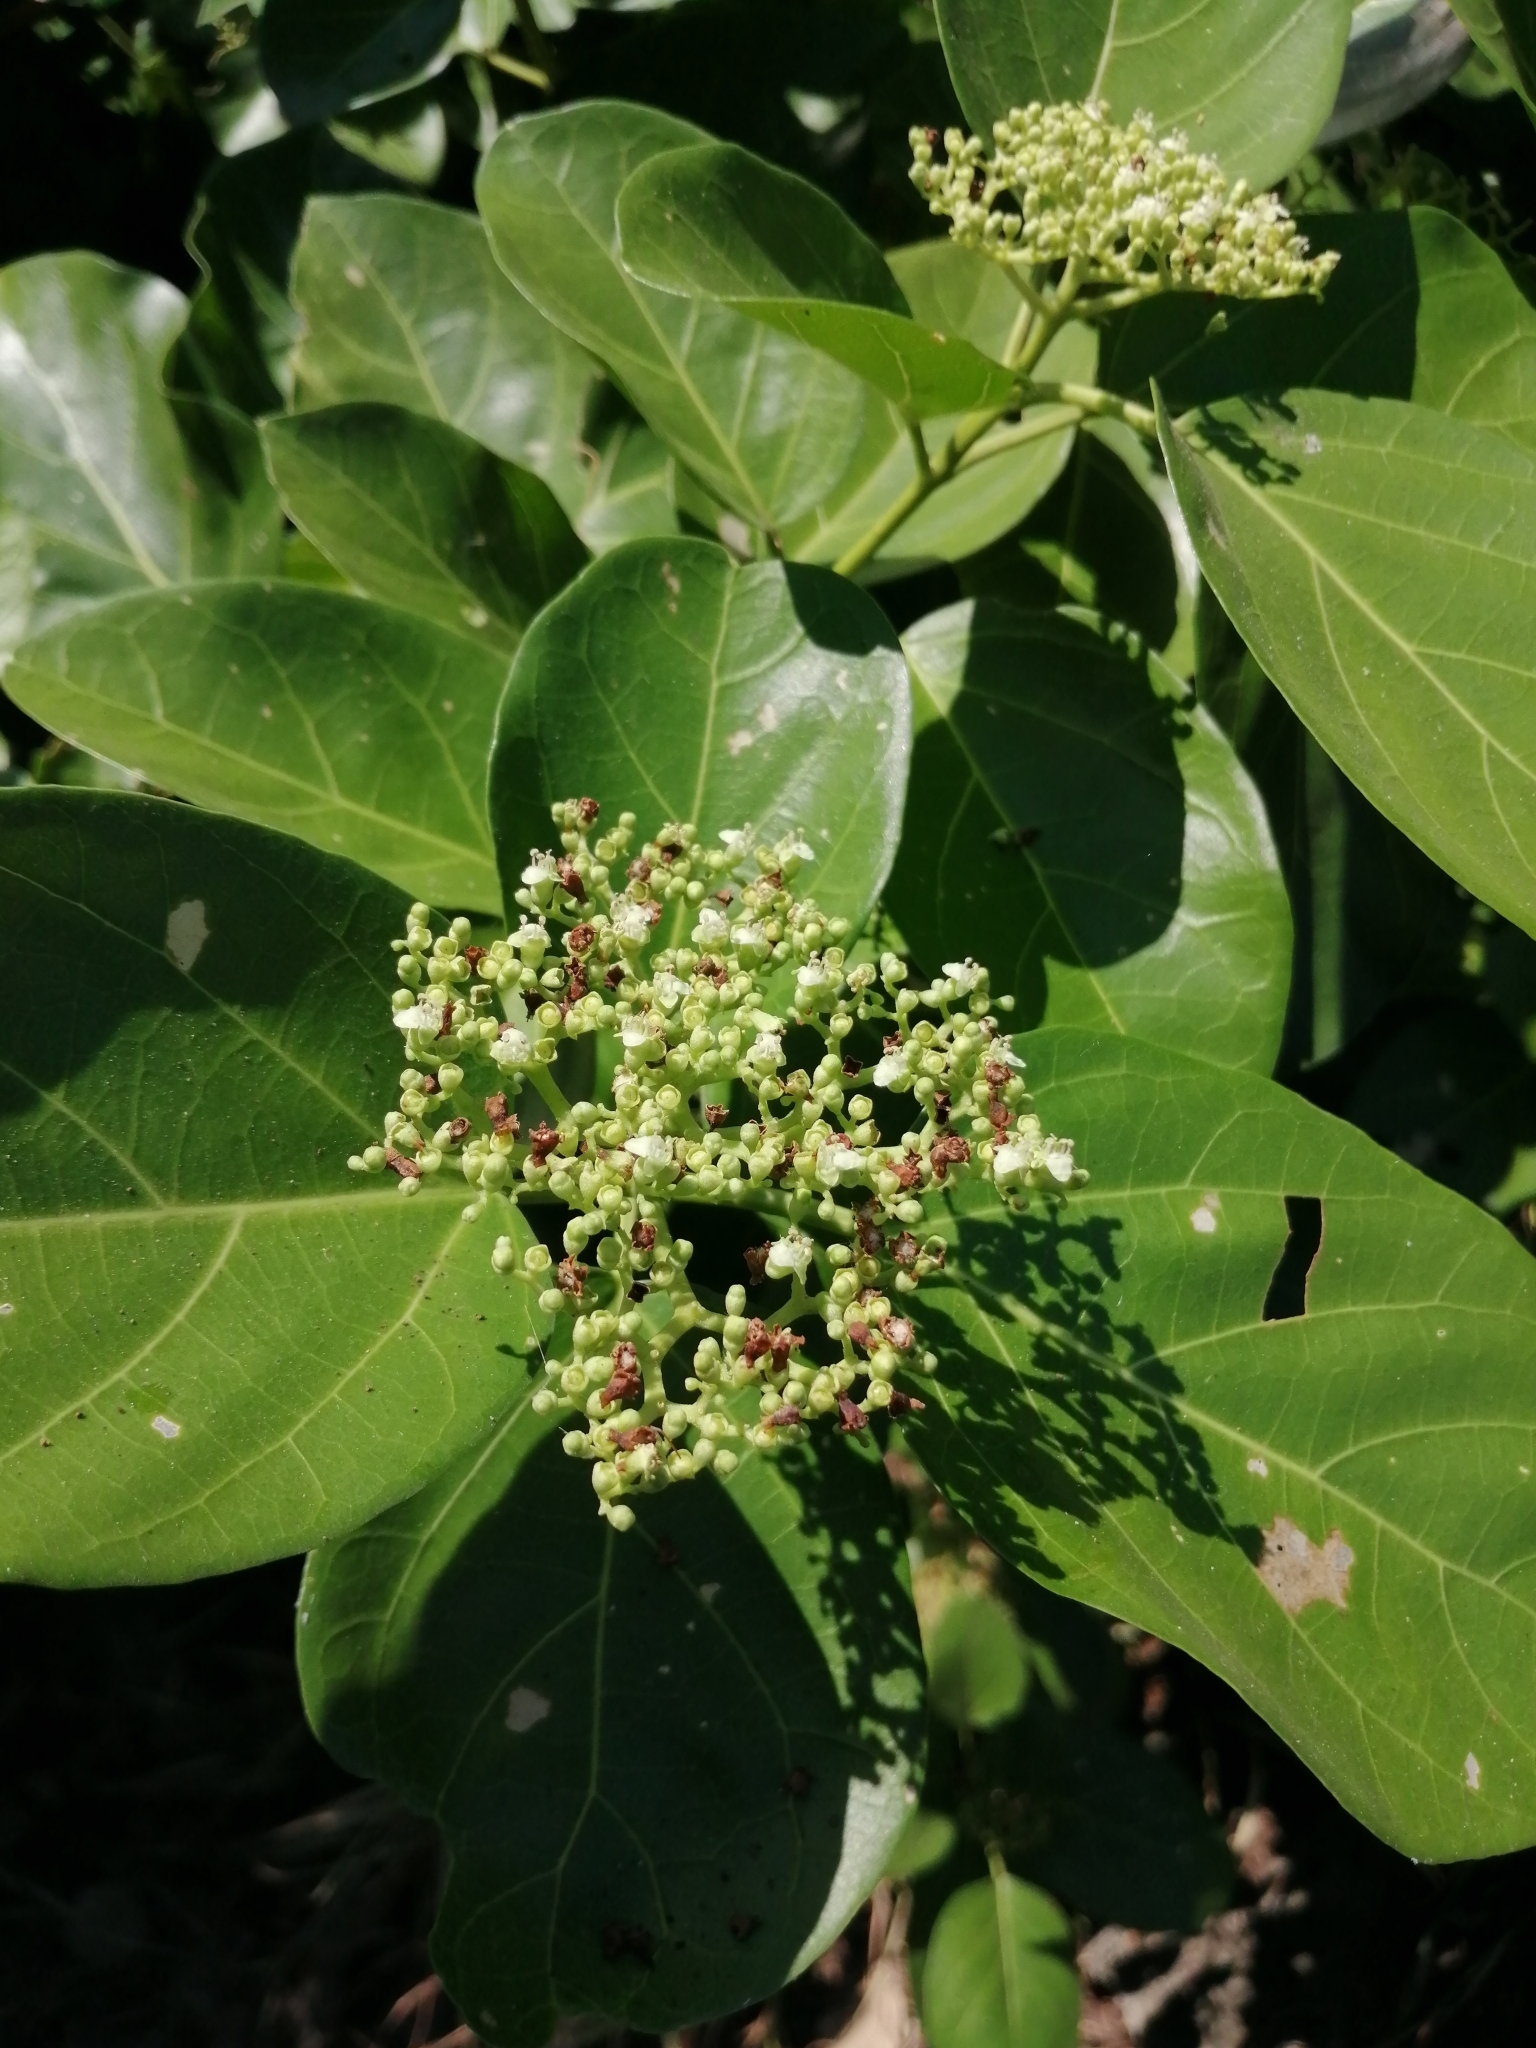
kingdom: Plantae
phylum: Tracheophyta
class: Magnoliopsida
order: Lamiales
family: Lamiaceae
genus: Premna
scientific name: Premna serratifolia
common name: Bastard guelder
